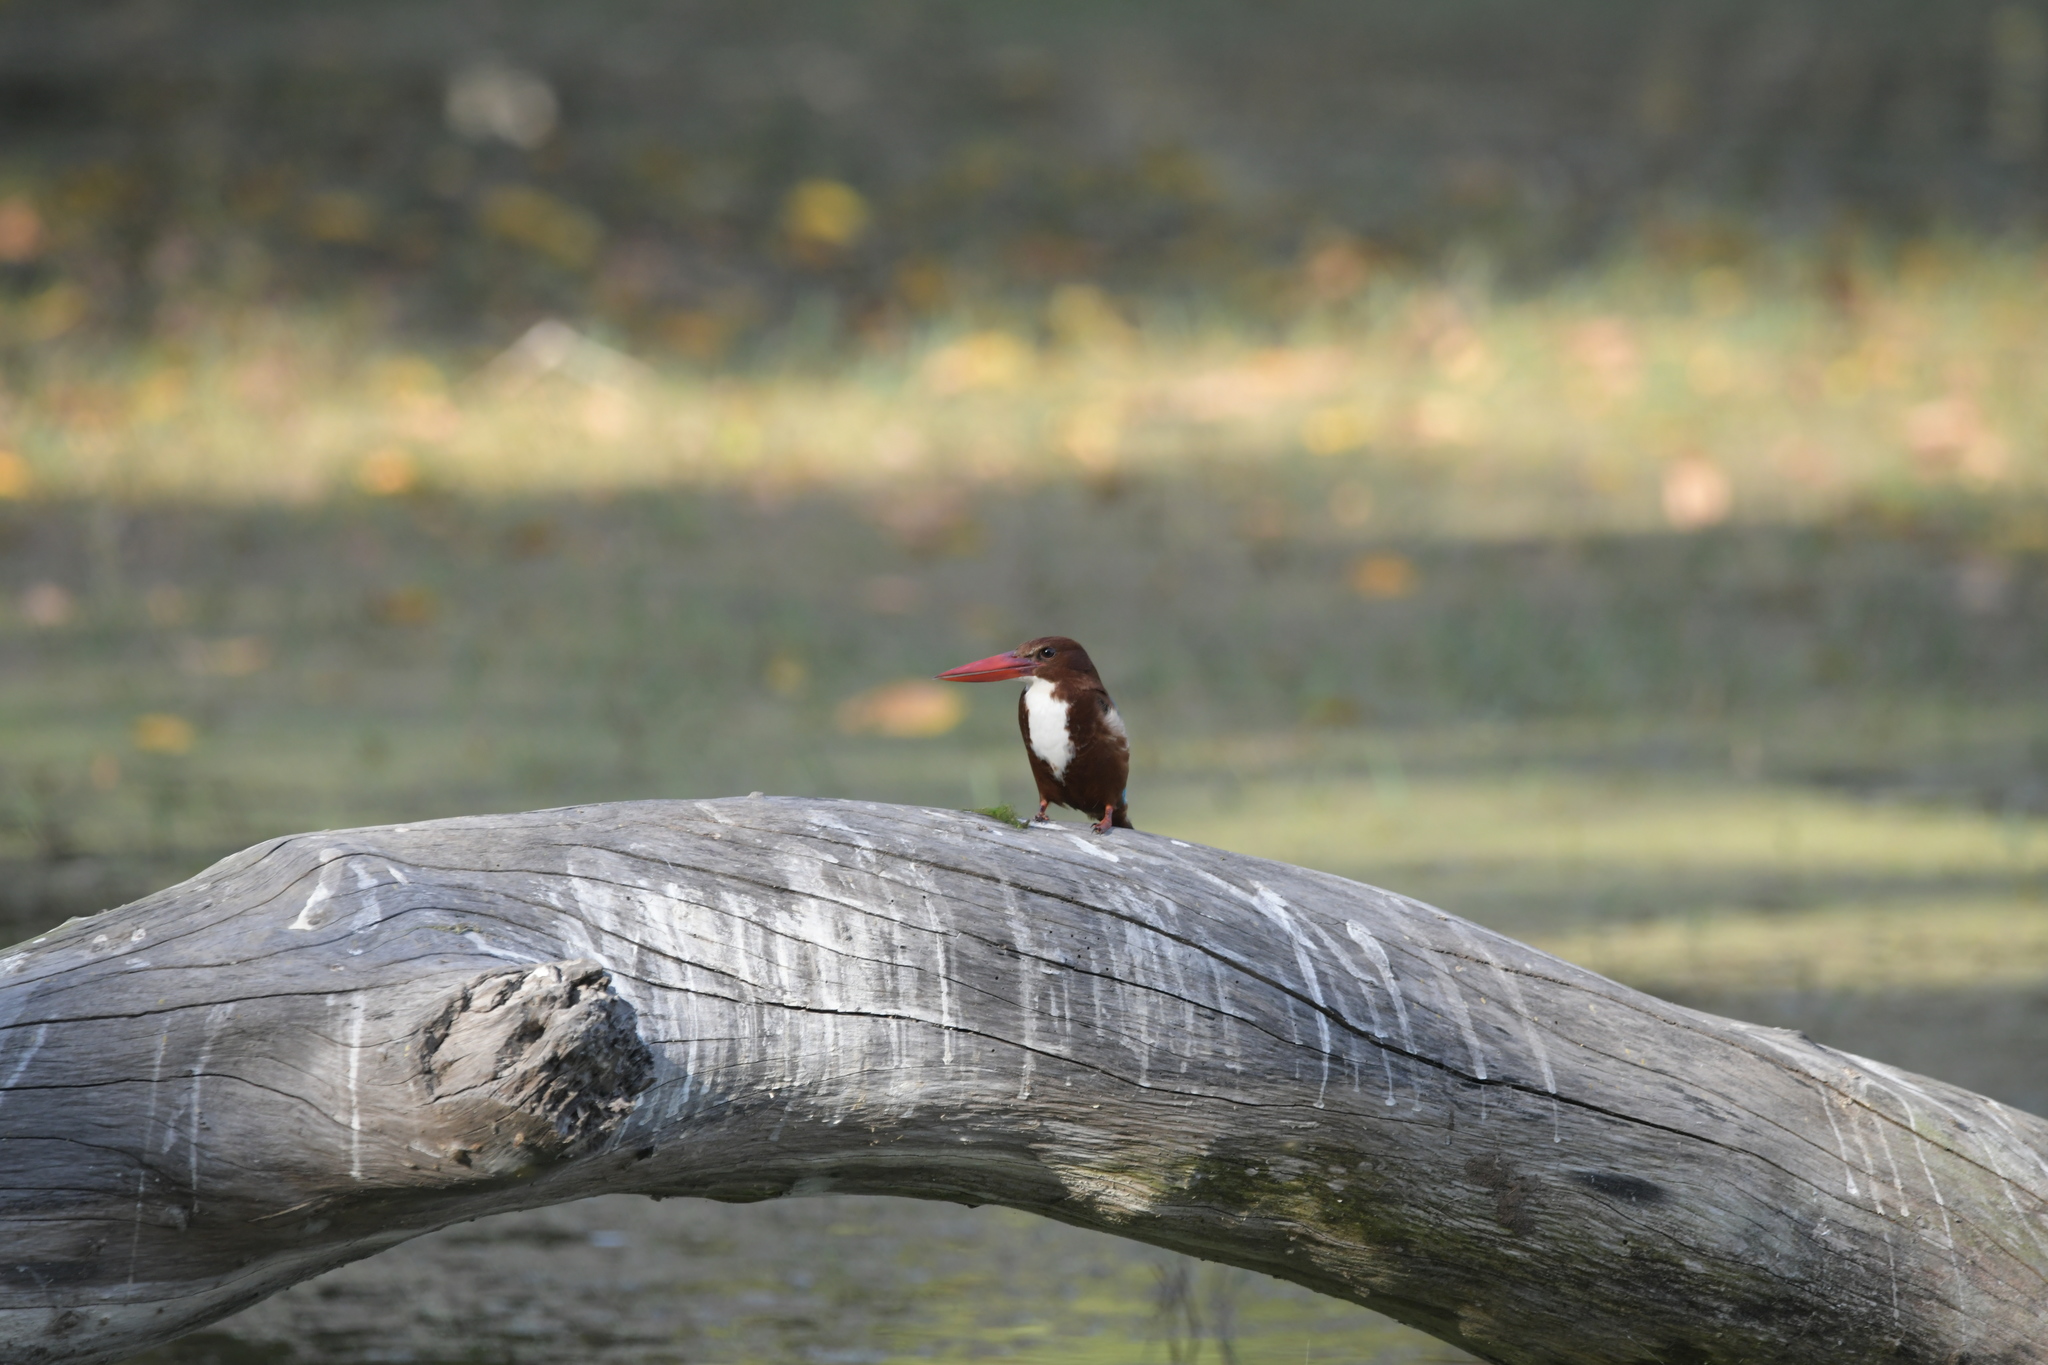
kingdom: Animalia
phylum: Chordata
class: Aves
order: Coraciiformes
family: Alcedinidae
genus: Halcyon
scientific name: Halcyon smyrnensis
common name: White-throated kingfisher
